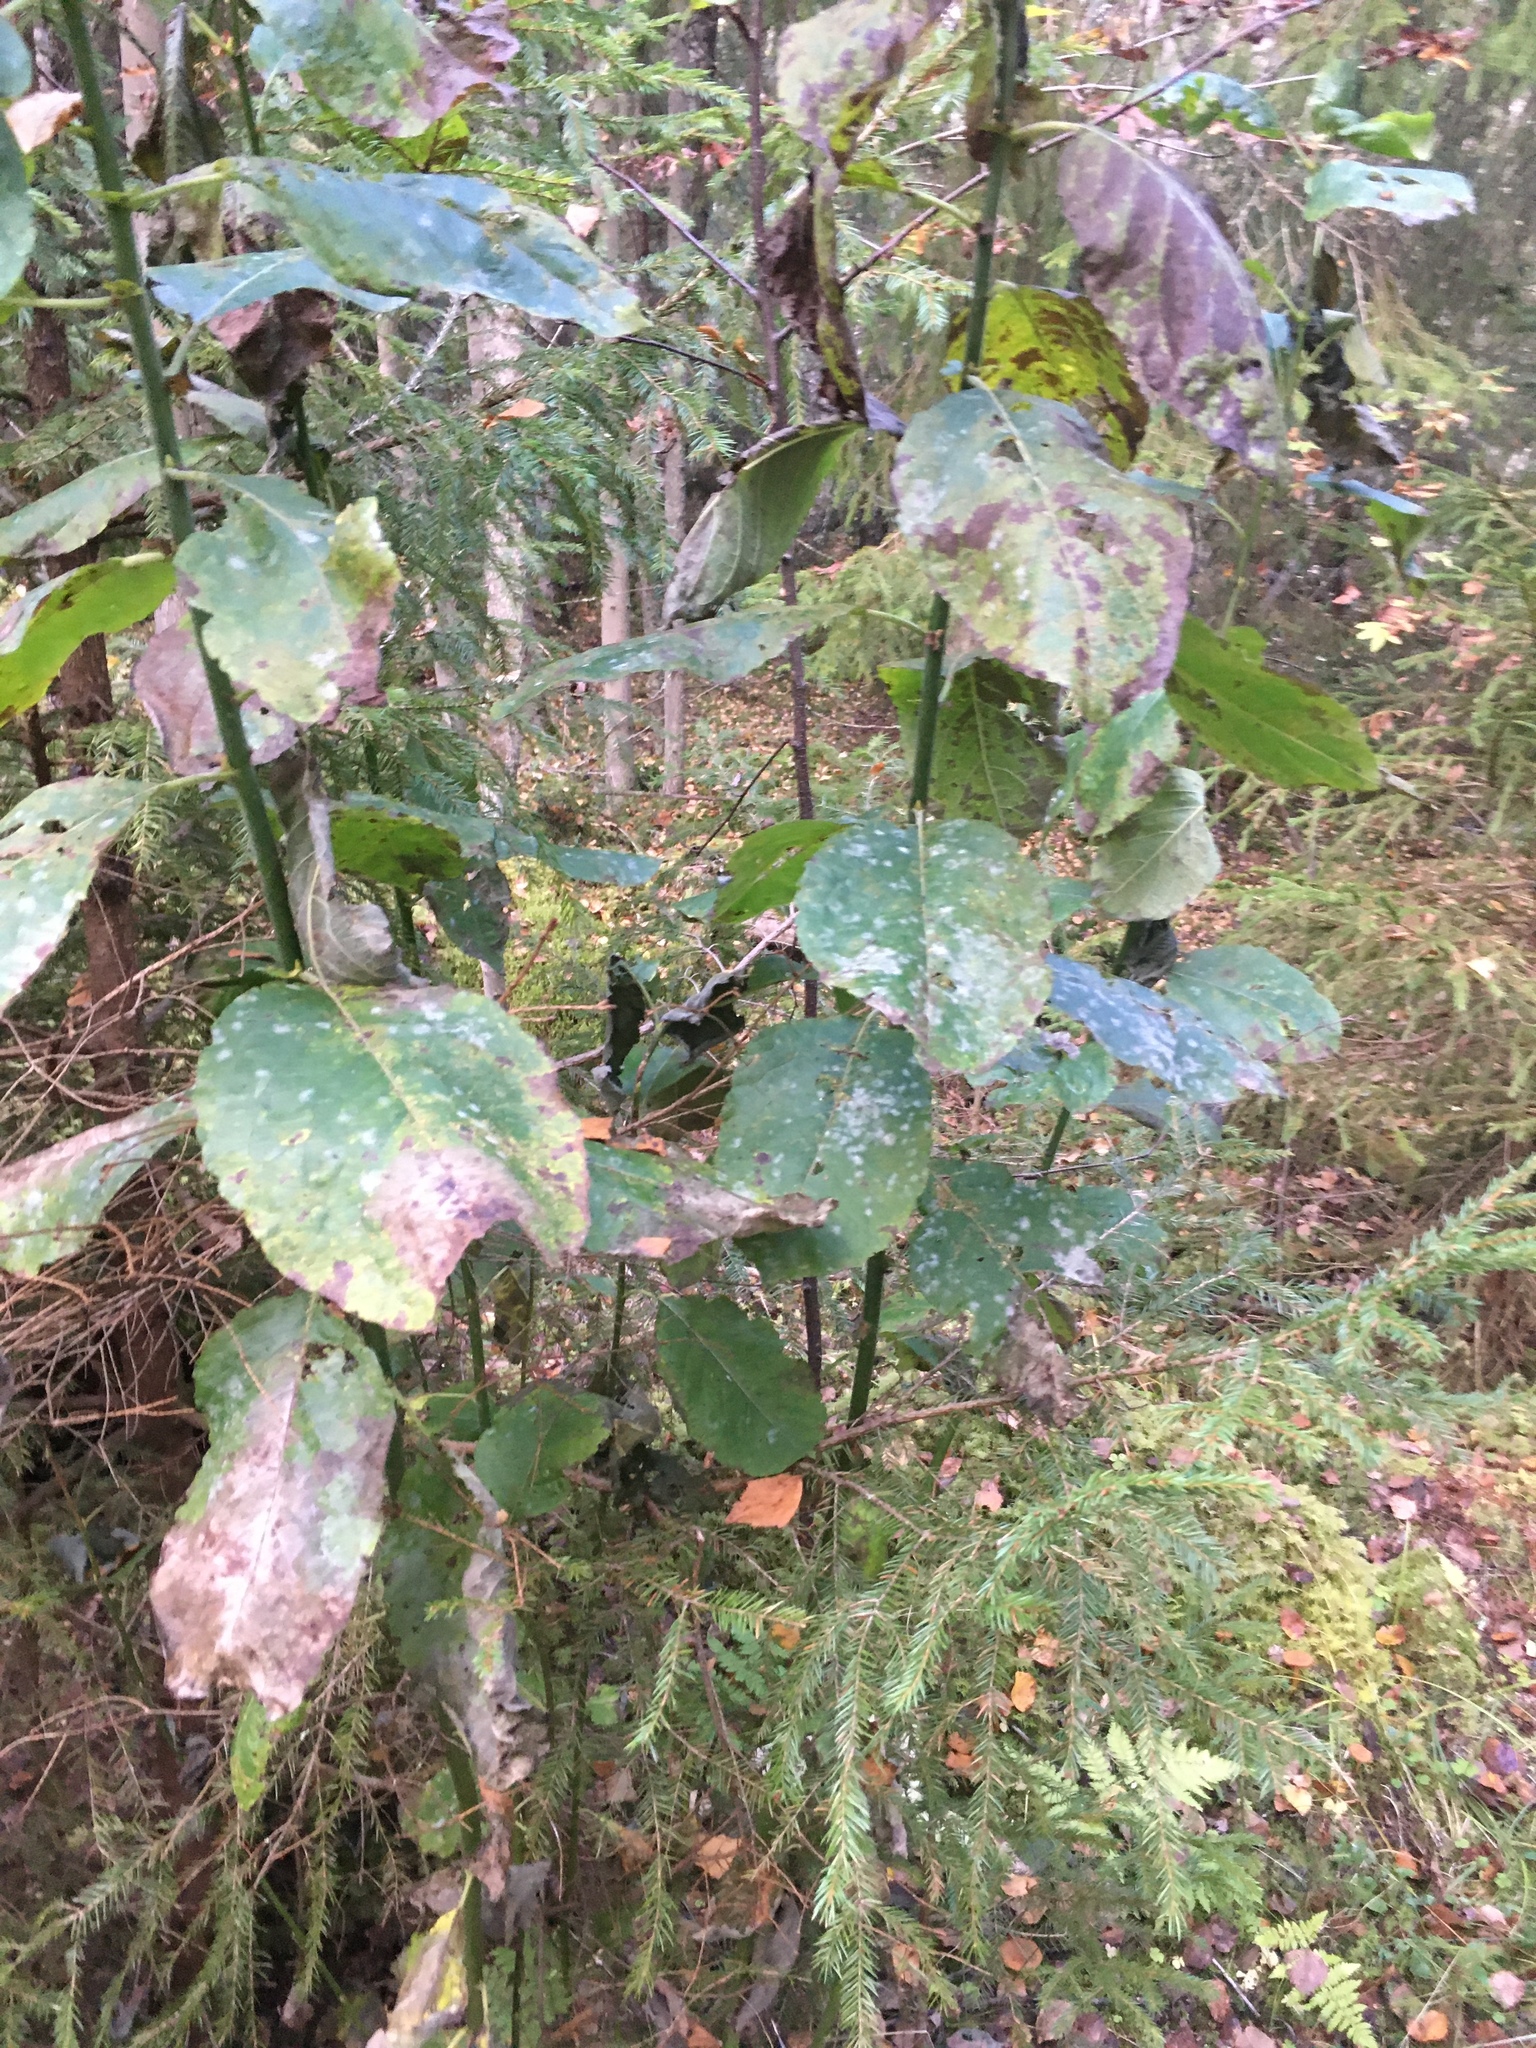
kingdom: Plantae
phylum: Tracheophyta
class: Magnoliopsida
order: Malpighiales
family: Salicaceae
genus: Salix
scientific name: Salix caprea
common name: Goat willow
